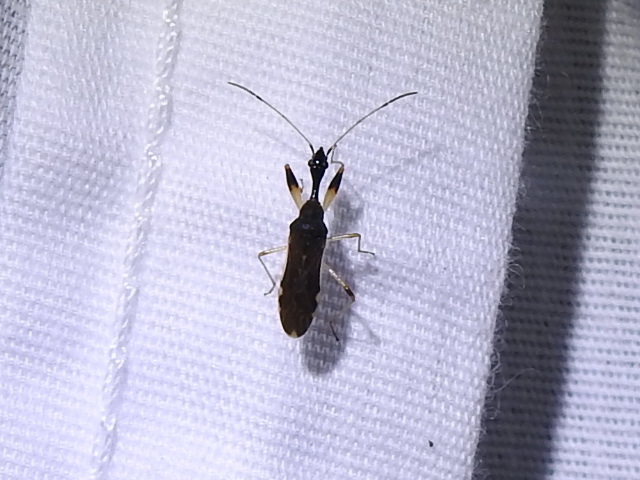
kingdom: Animalia
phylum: Arthropoda
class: Insecta
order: Hemiptera
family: Rhyparochromidae
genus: Myodocha
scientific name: Myodocha serripes
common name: Long-necked seed bug
